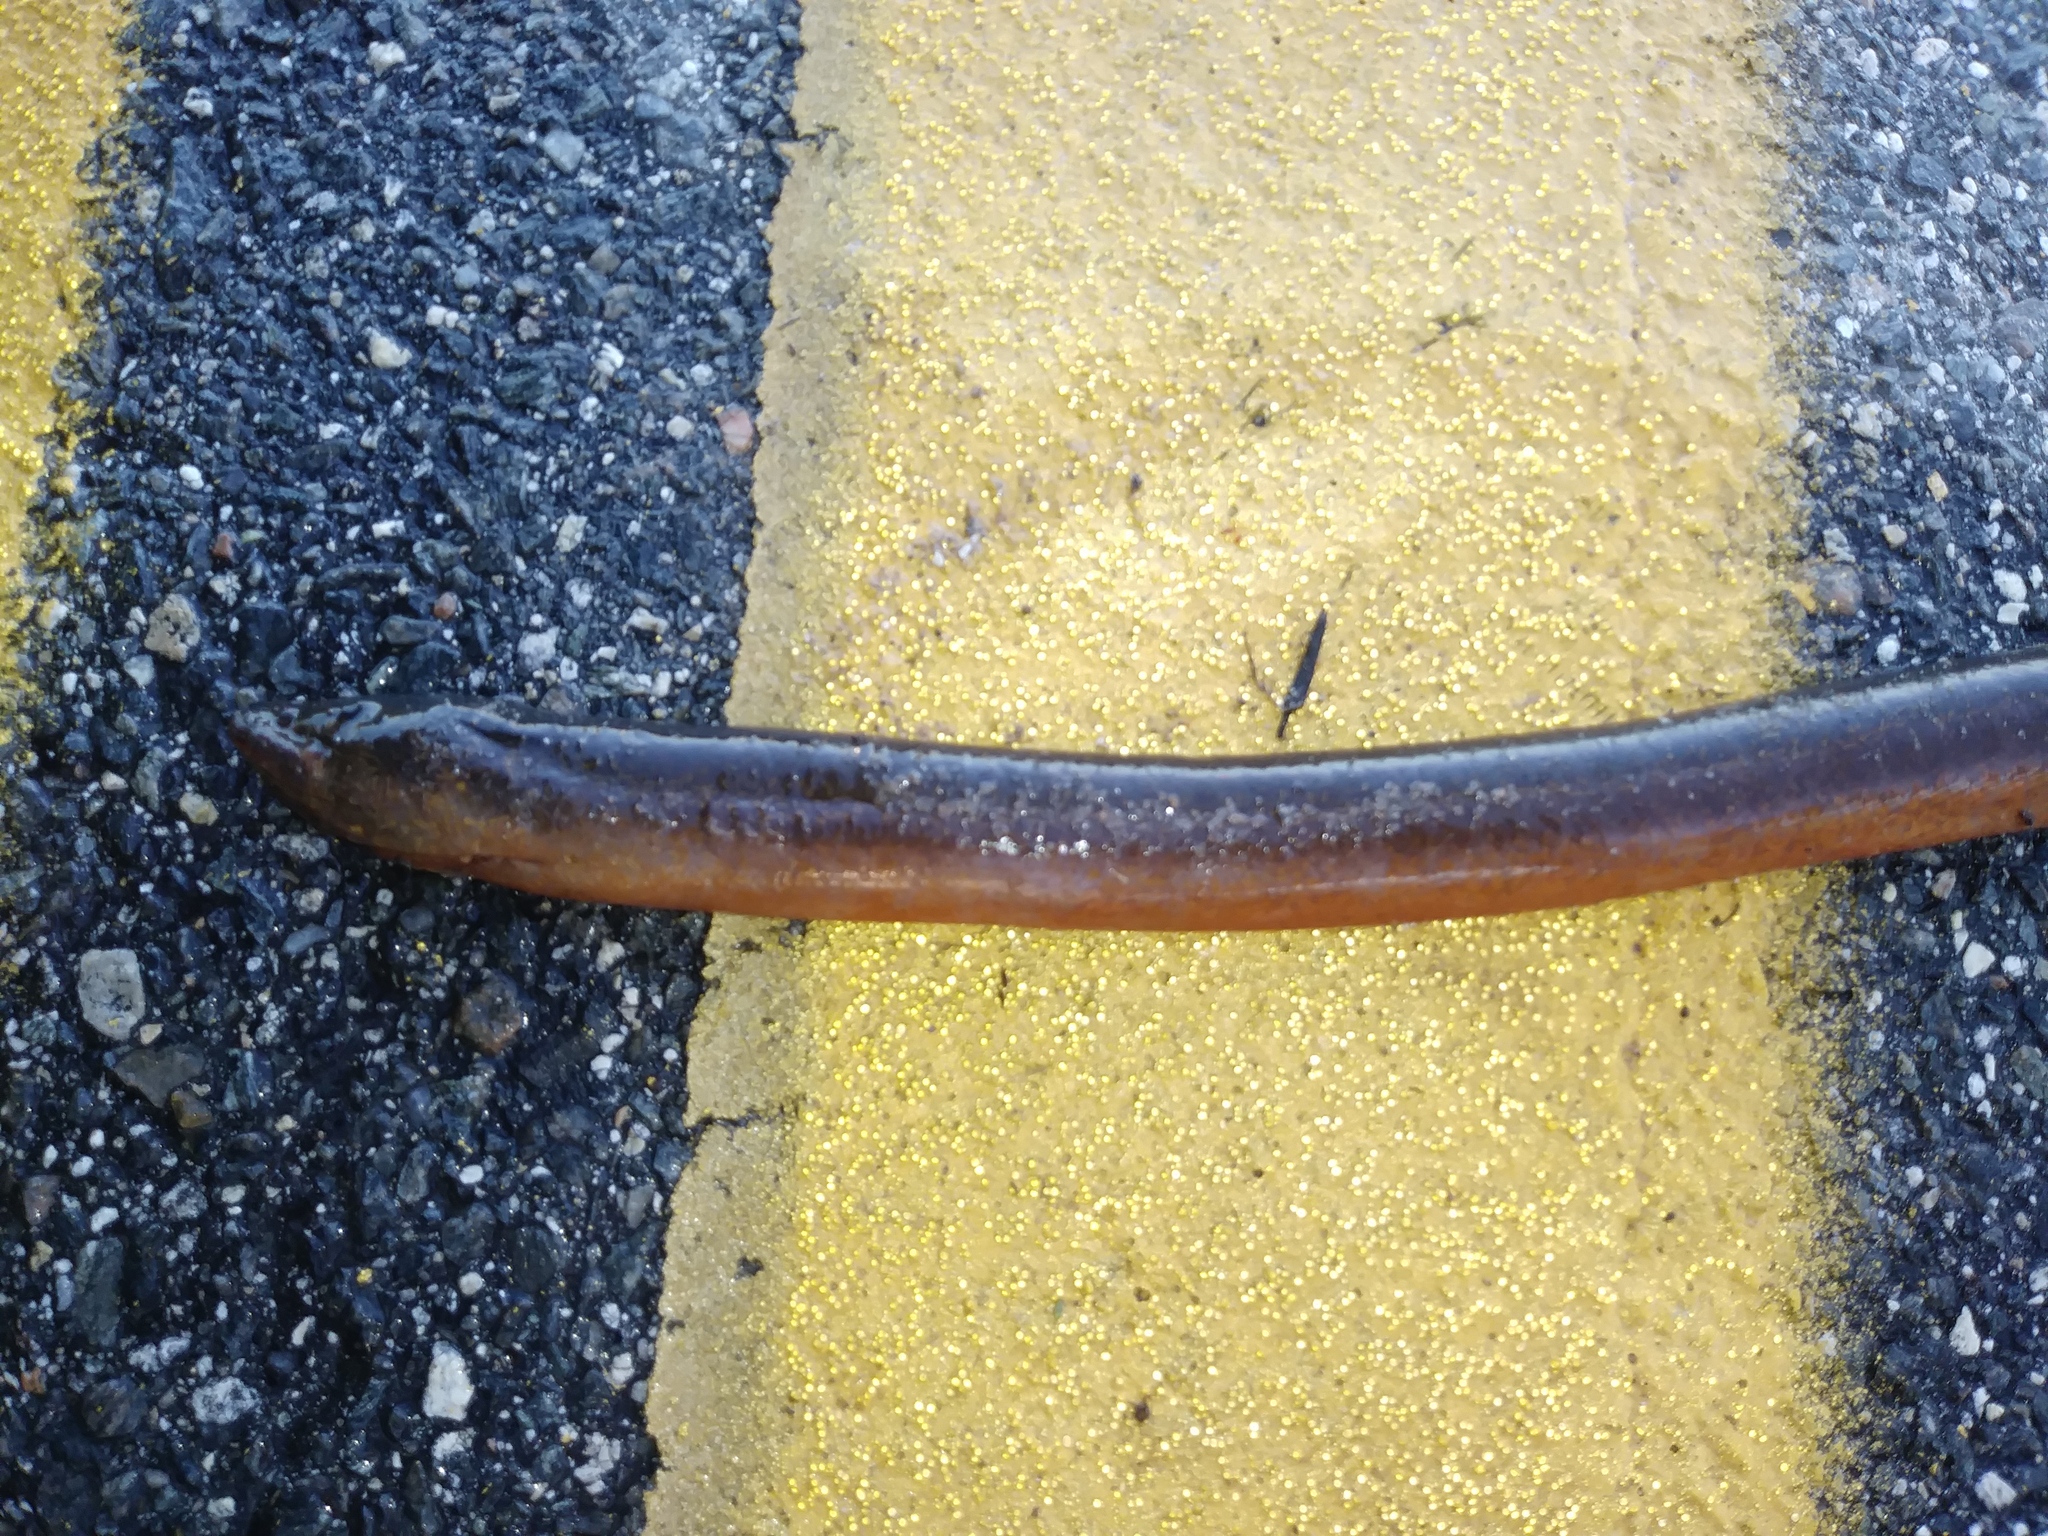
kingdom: Animalia
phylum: Chordata
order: Synbranchiformes
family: Synbranchidae
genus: Monopterus
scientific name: Monopterus albus
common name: Asian swamp eel
